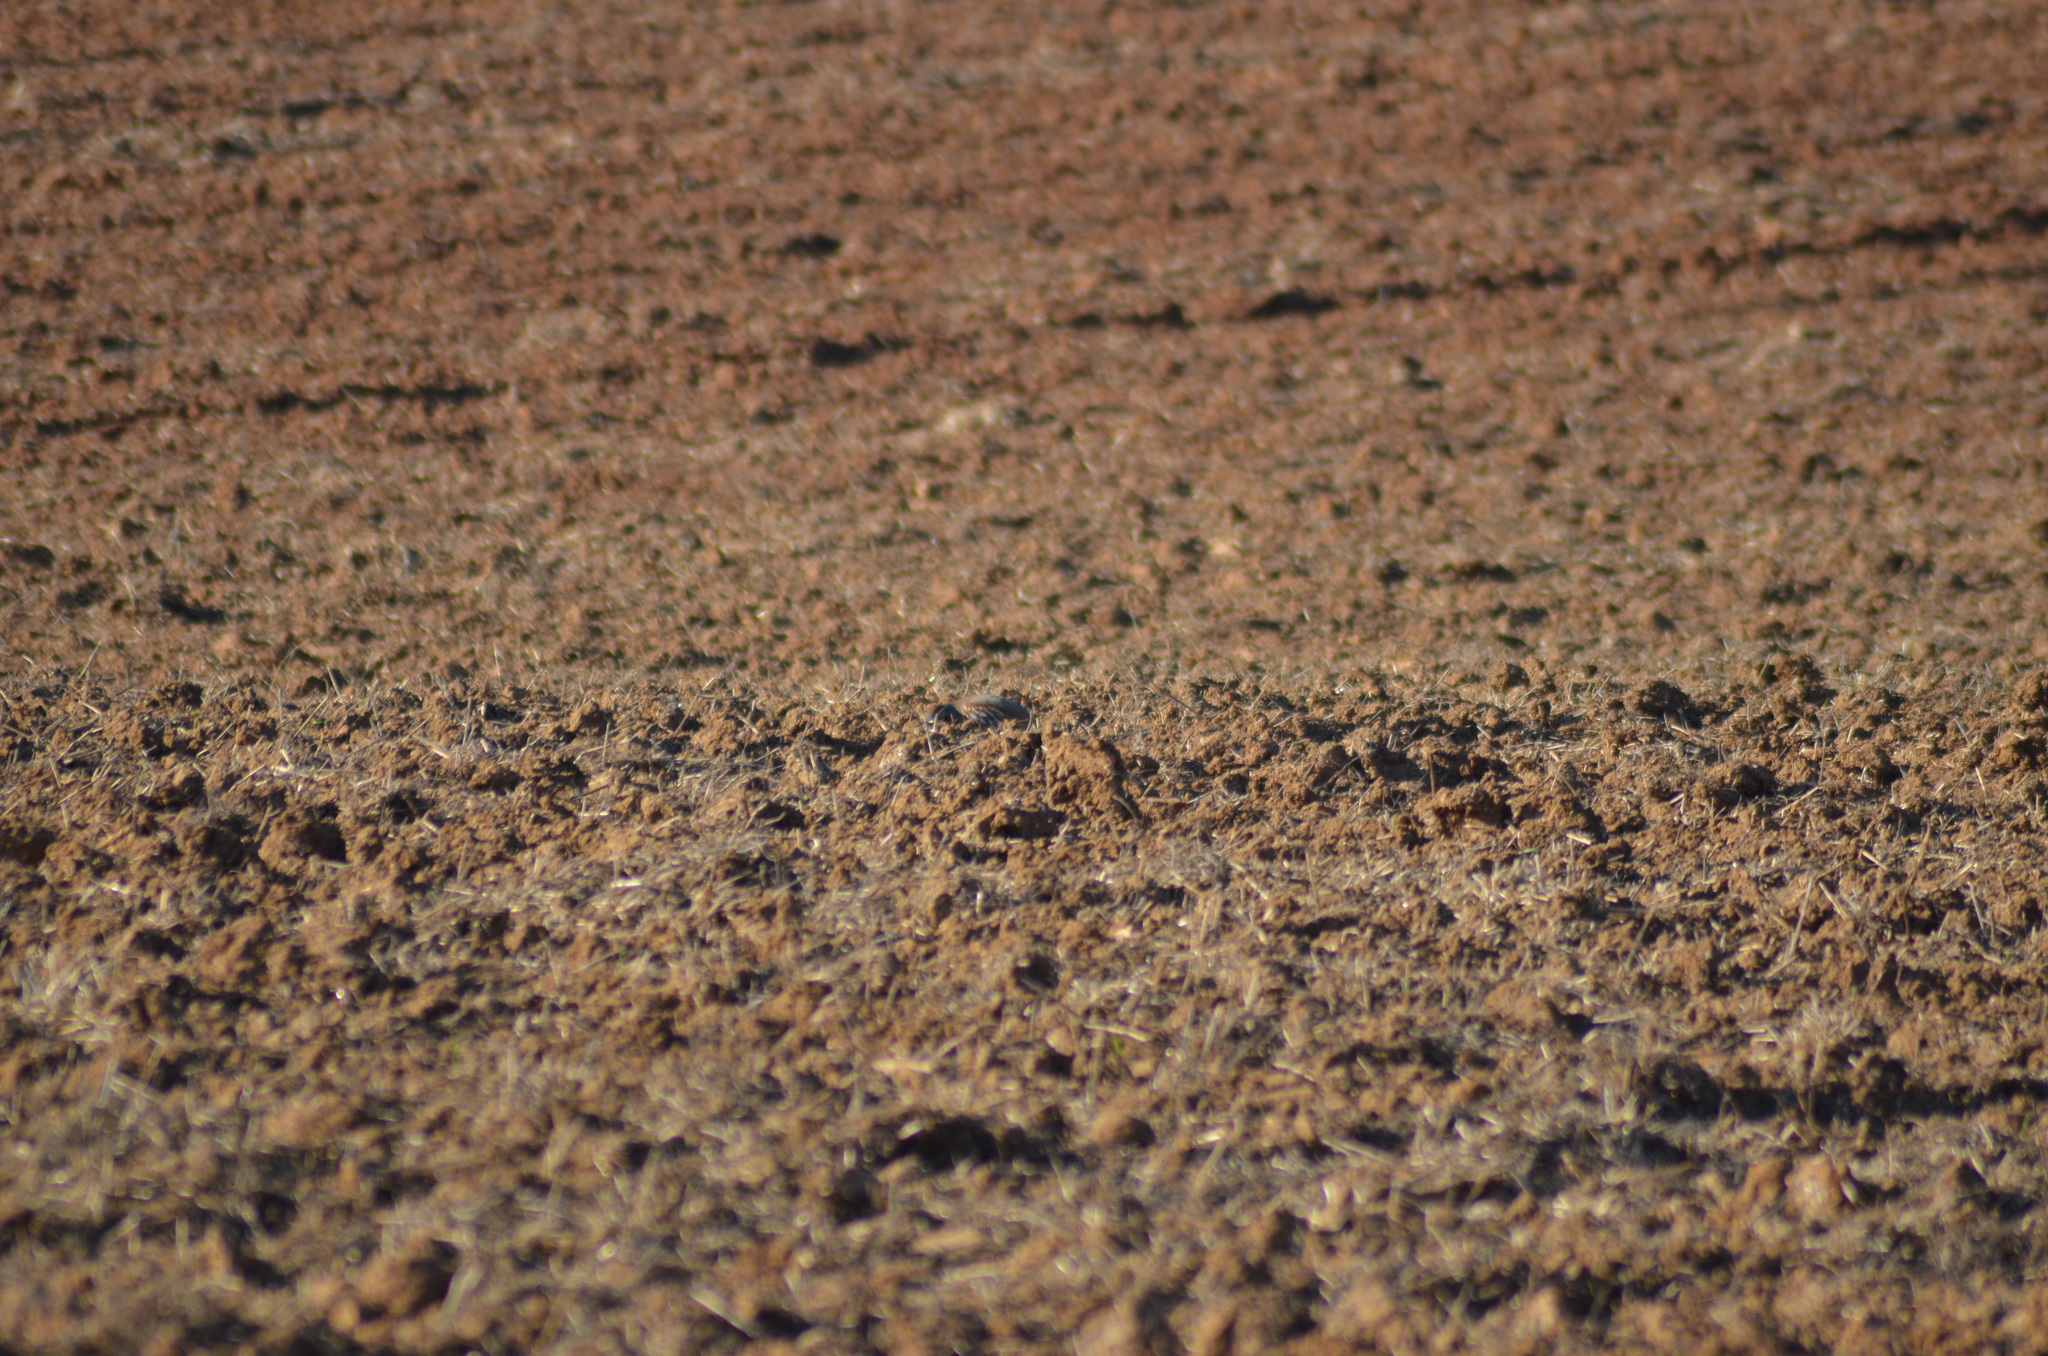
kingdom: Animalia
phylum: Chordata
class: Aves
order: Galliformes
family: Phasianidae
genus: Alectoris
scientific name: Alectoris rufa
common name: Red-legged partridge
